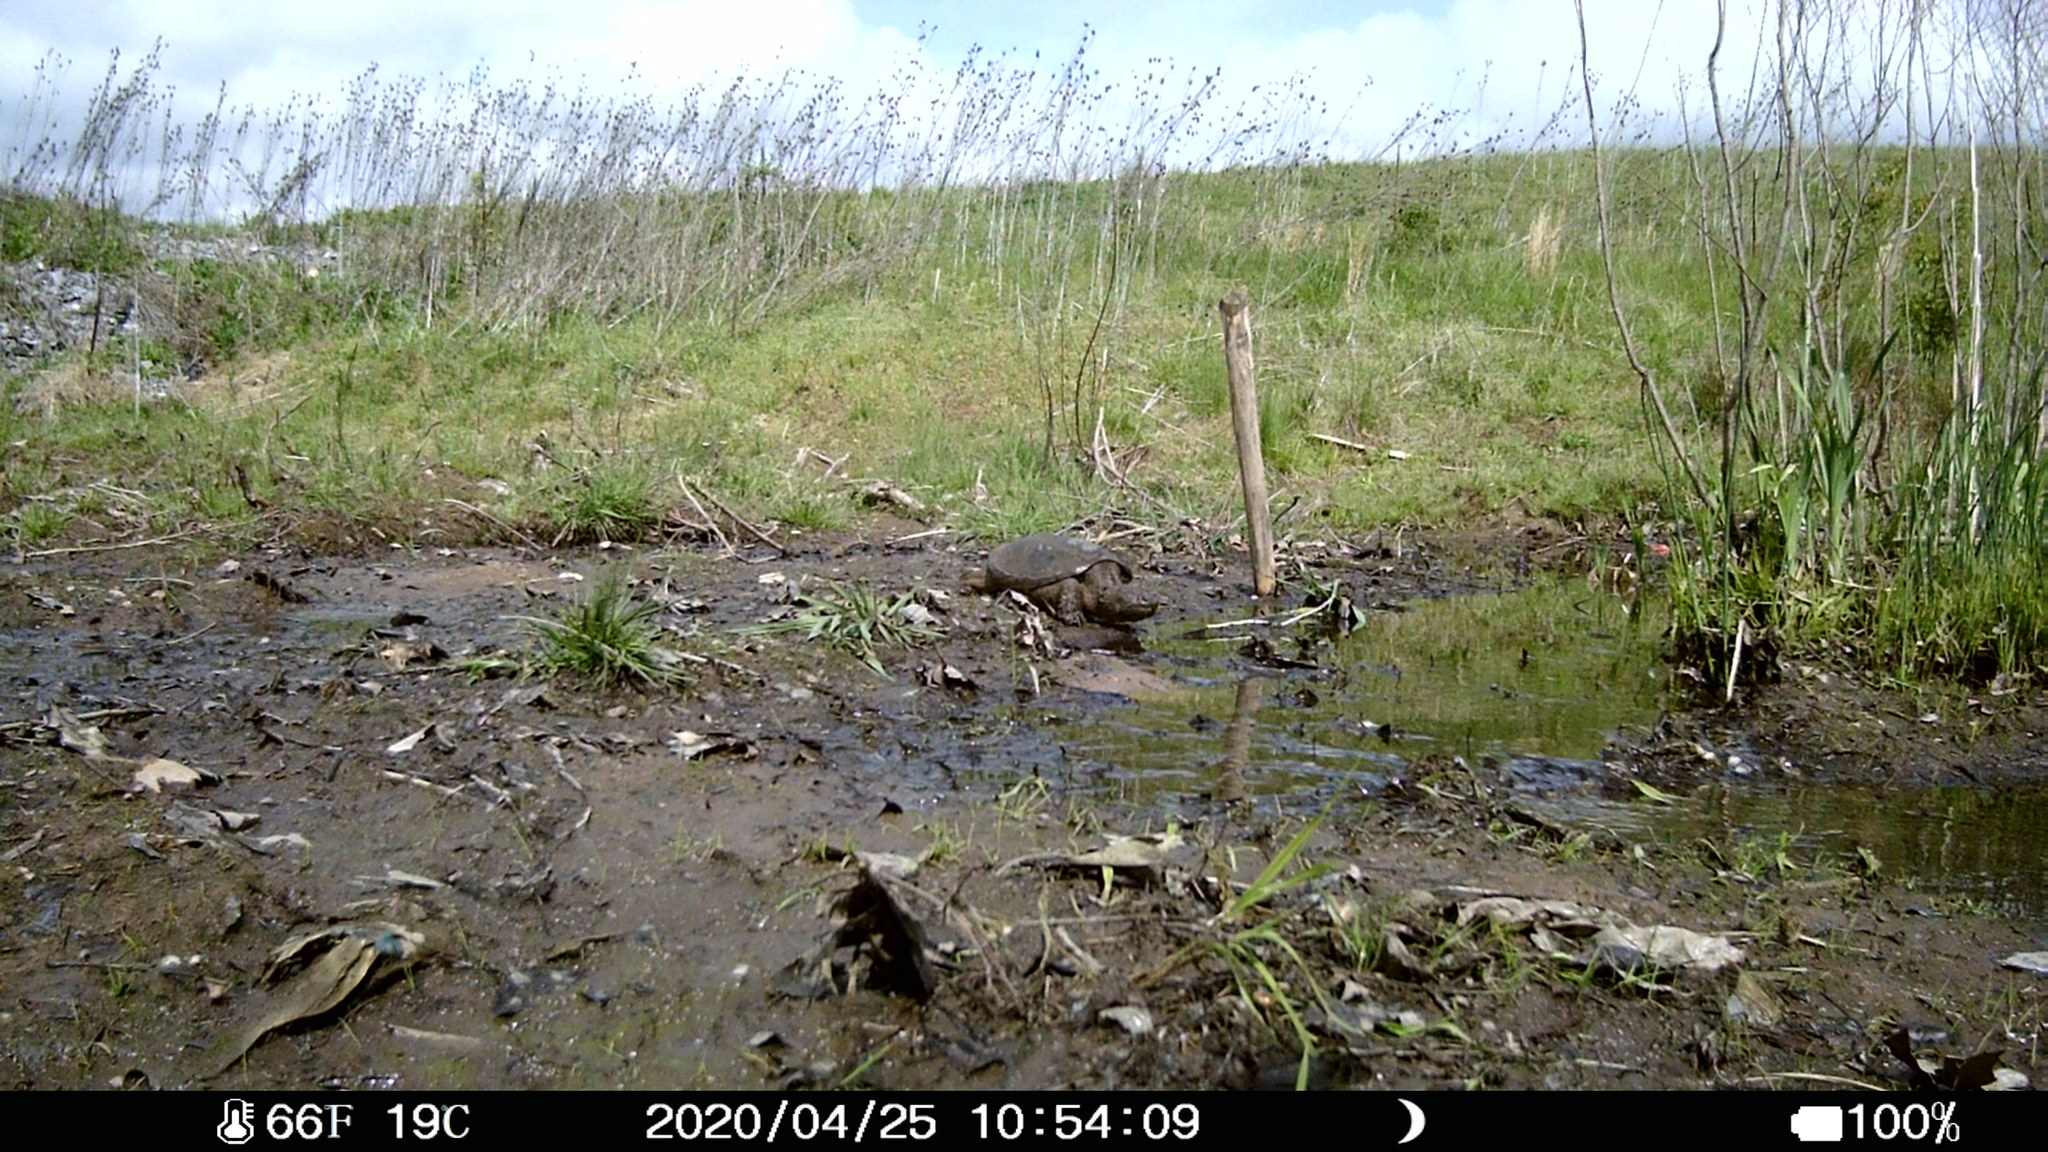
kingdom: Animalia
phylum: Chordata
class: Testudines
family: Chelydridae
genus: Chelydra
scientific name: Chelydra serpentina
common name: Common snapping turtle
